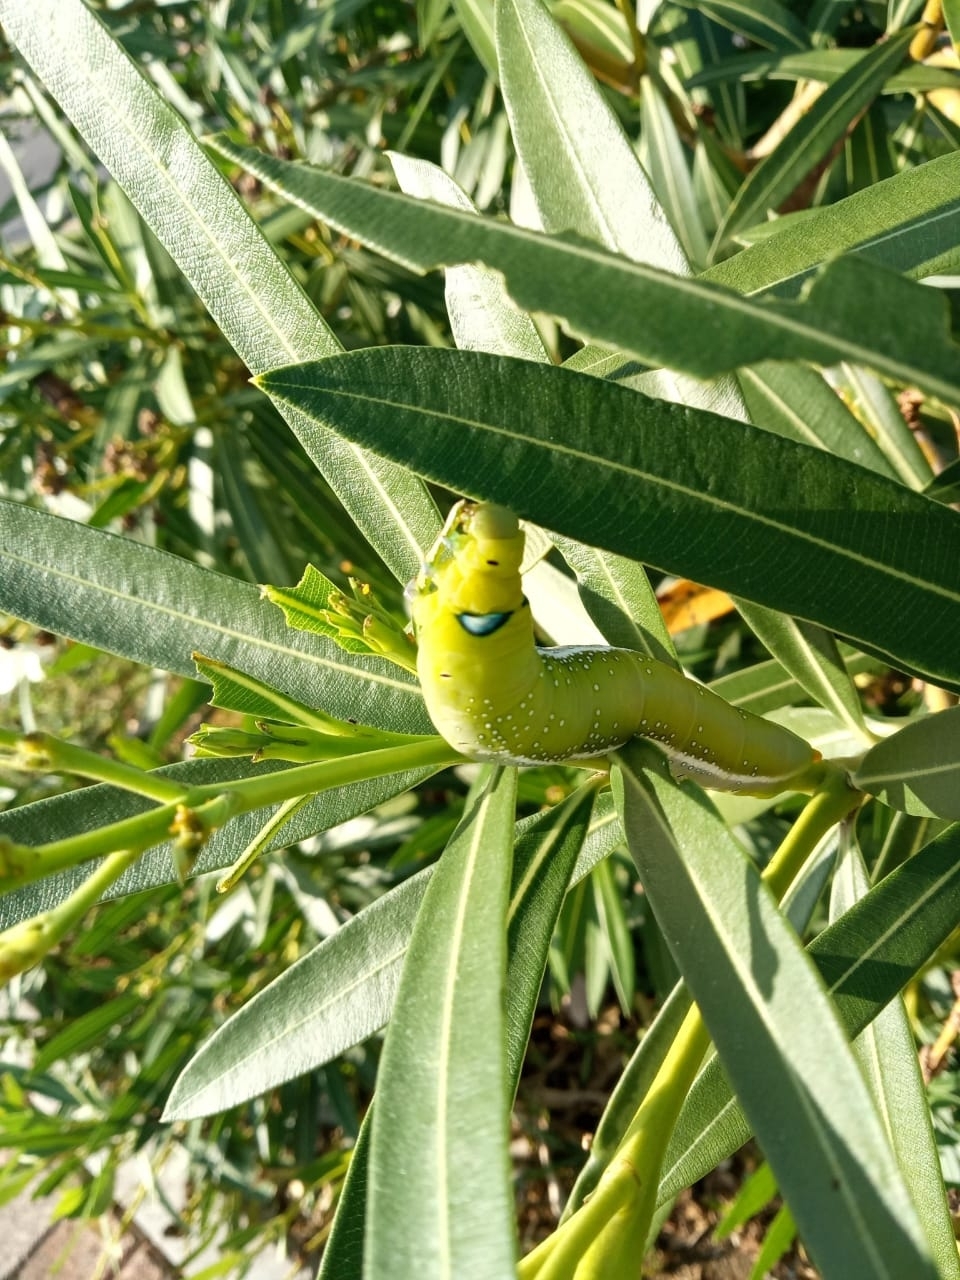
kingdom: Animalia
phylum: Arthropoda
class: Insecta
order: Lepidoptera
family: Sphingidae
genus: Daphnis
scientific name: Daphnis nerii
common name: Oleander hawk-moth
